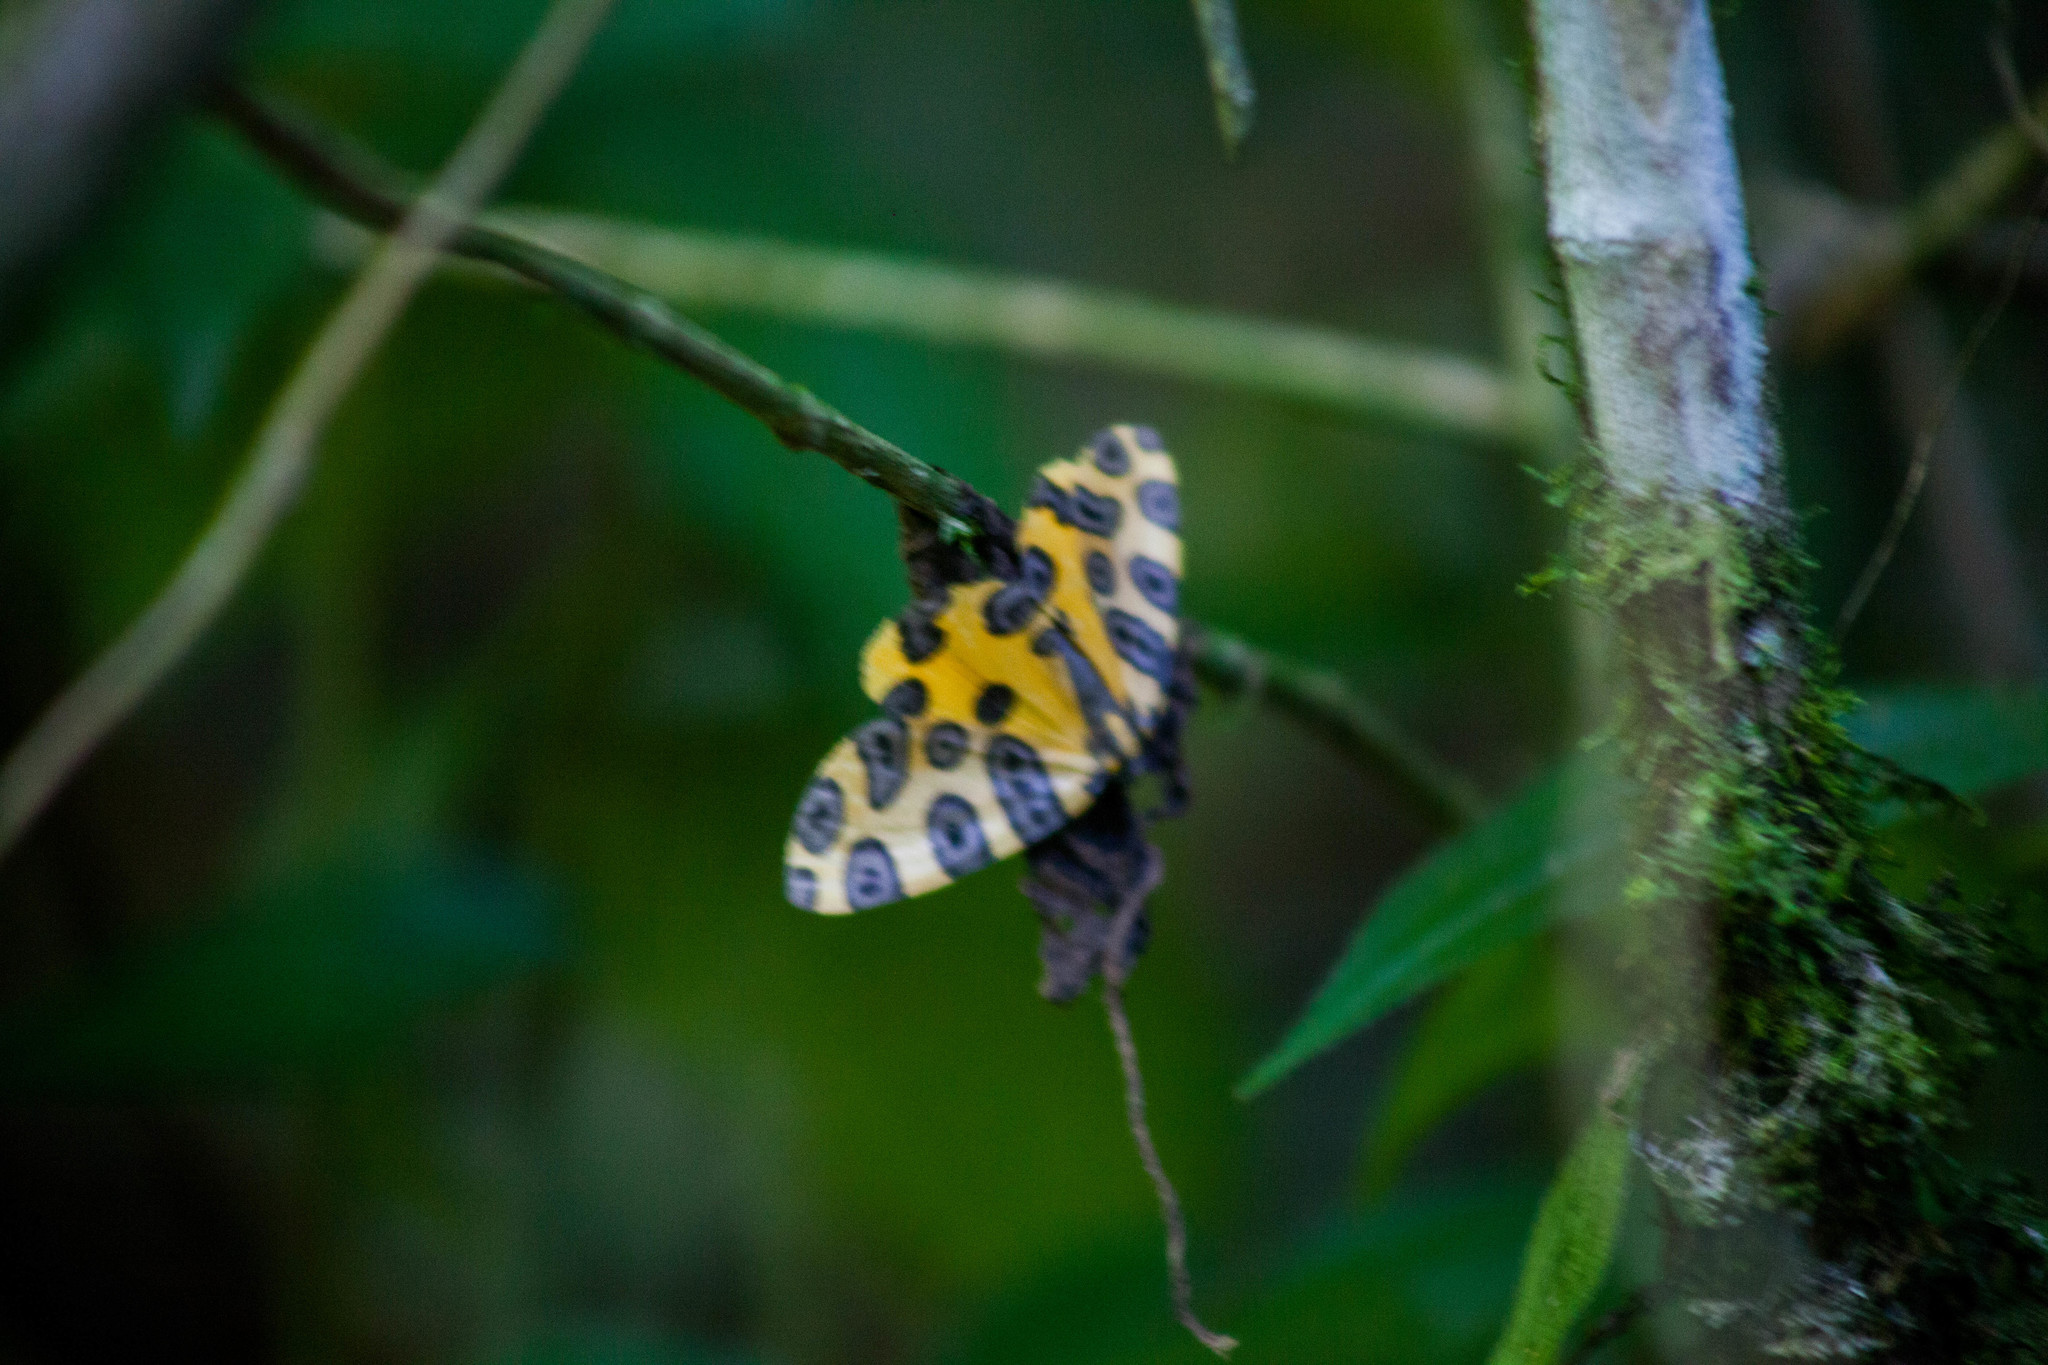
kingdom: Animalia
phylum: Arthropoda
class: Insecta
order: Lepidoptera
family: Geometridae
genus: Pantherodes
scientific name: Pantherodes pardalaria
